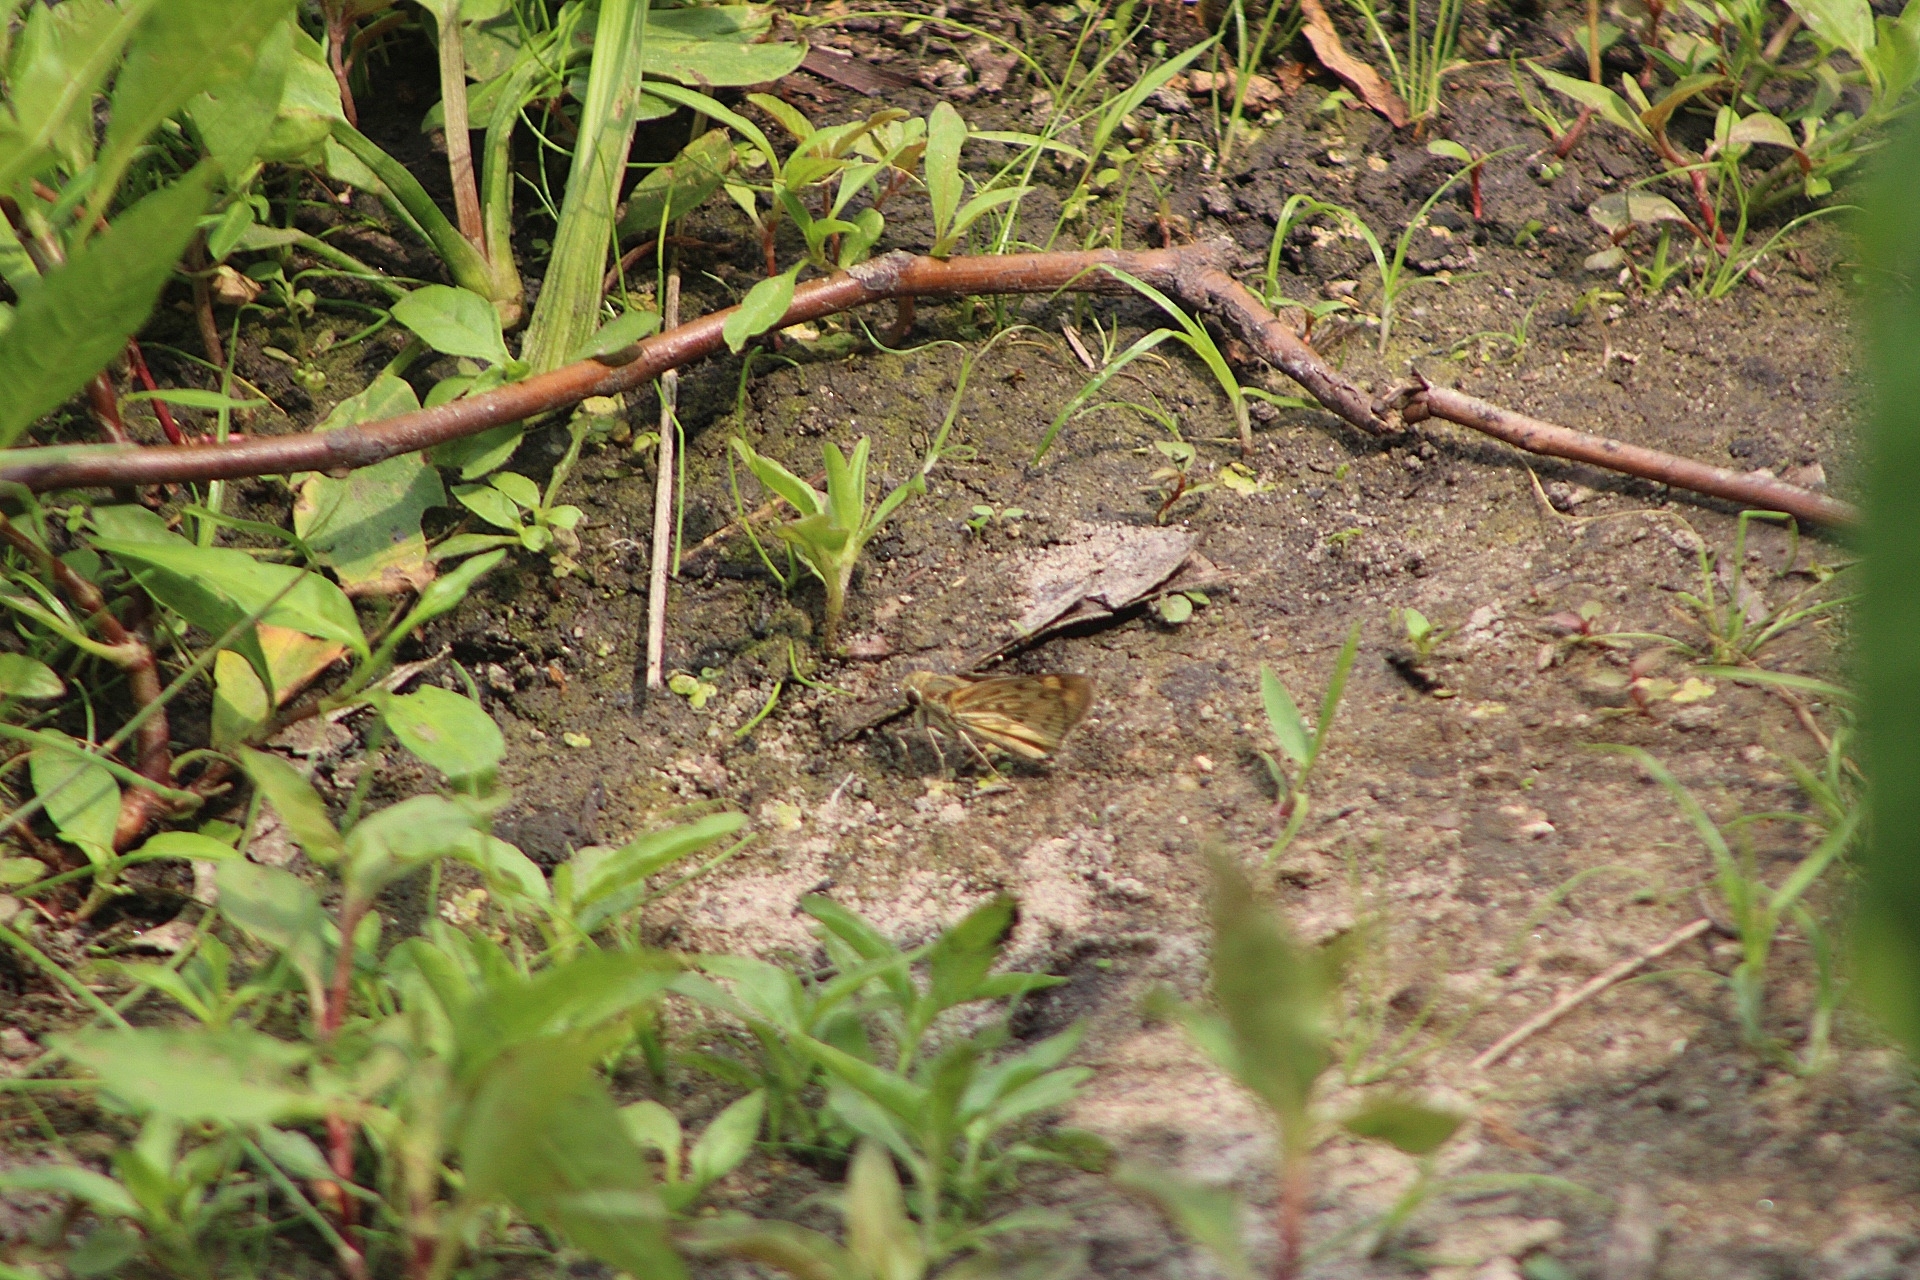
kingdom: Animalia
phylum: Arthropoda
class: Insecta
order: Lepidoptera
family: Hesperiidae
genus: Hylephila
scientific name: Hylephila phyleus
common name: Fiery skipper
